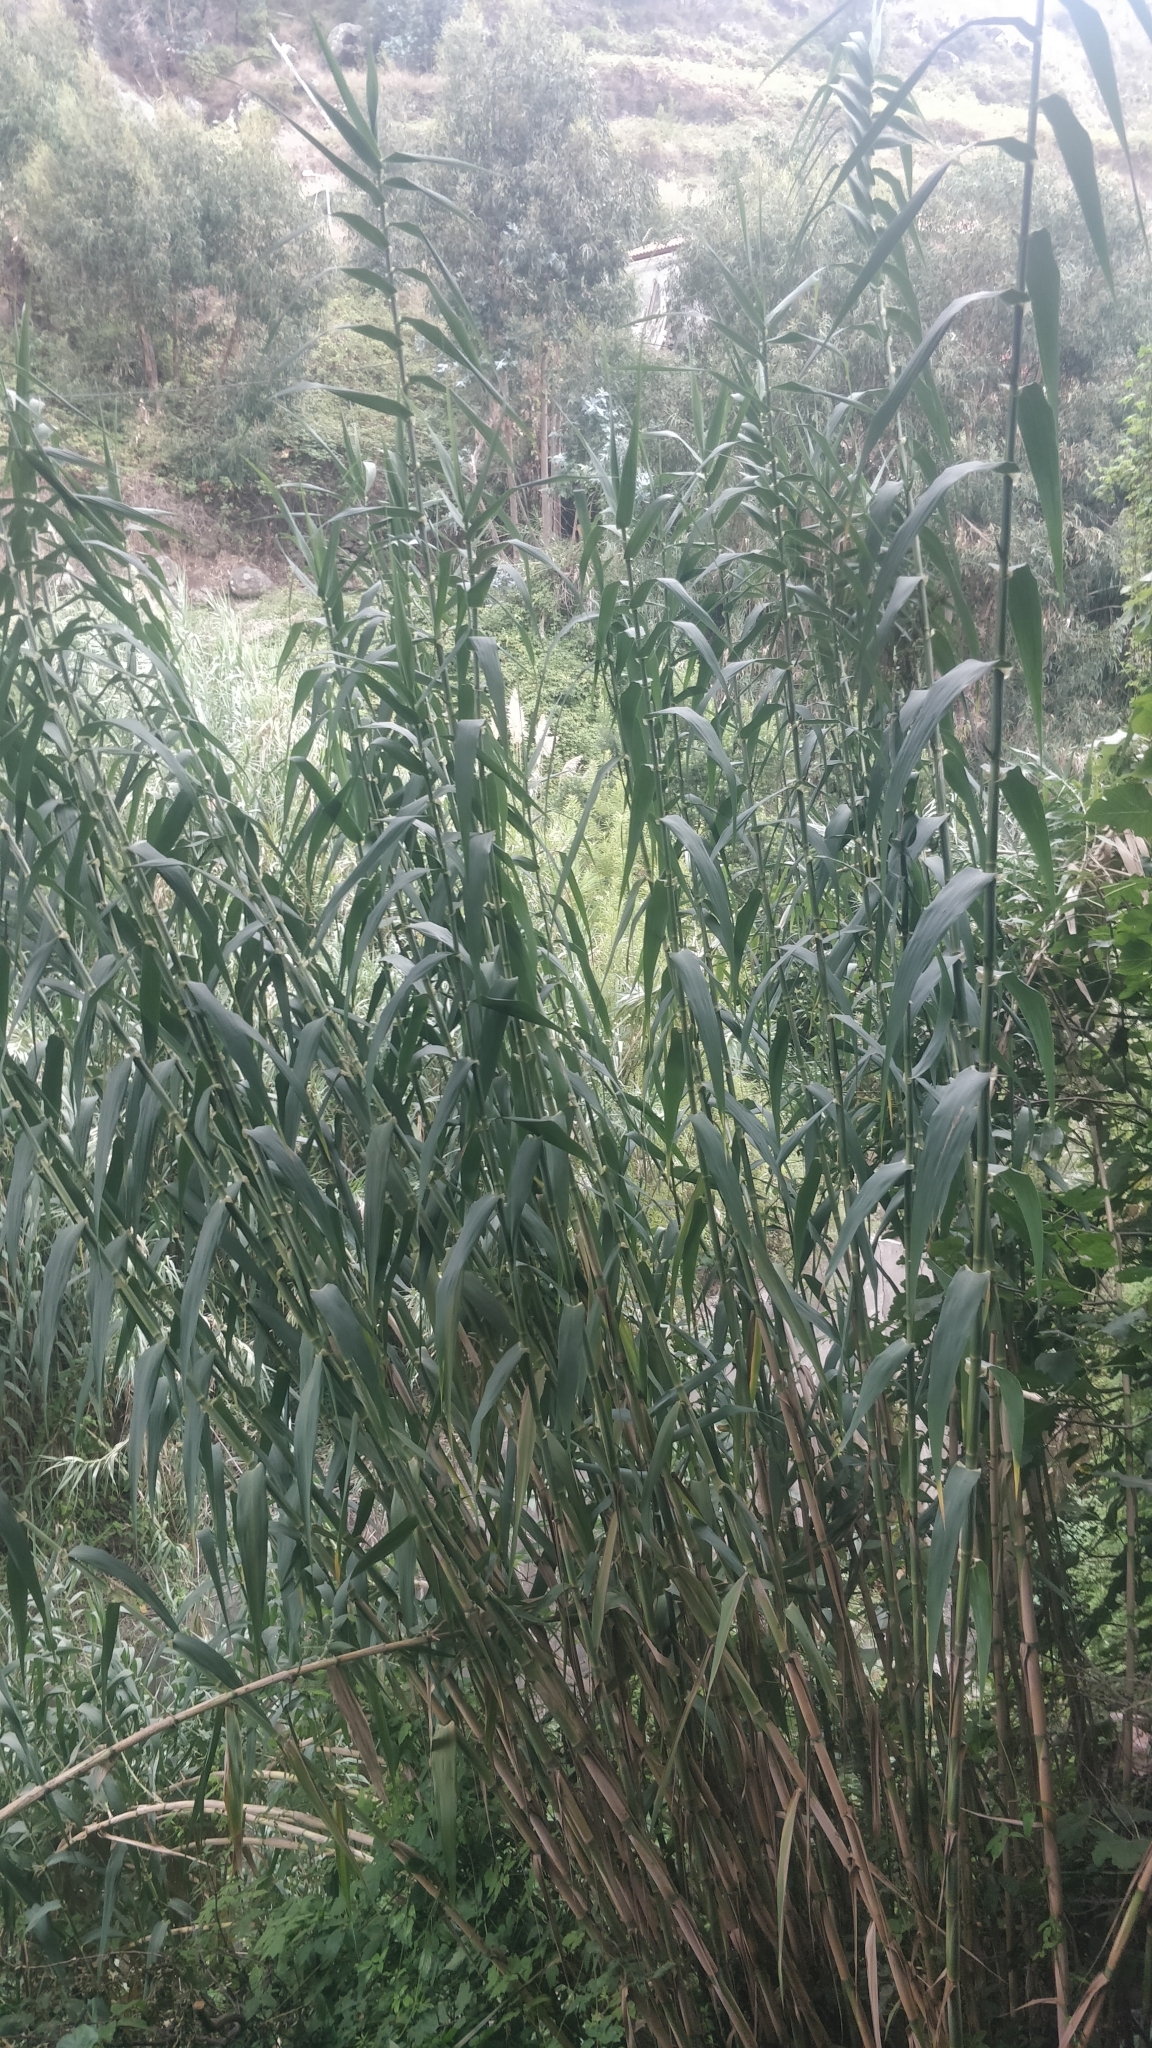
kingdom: Plantae
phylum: Tracheophyta
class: Liliopsida
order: Poales
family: Poaceae
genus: Arundo
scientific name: Arundo donax
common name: Giant reed
